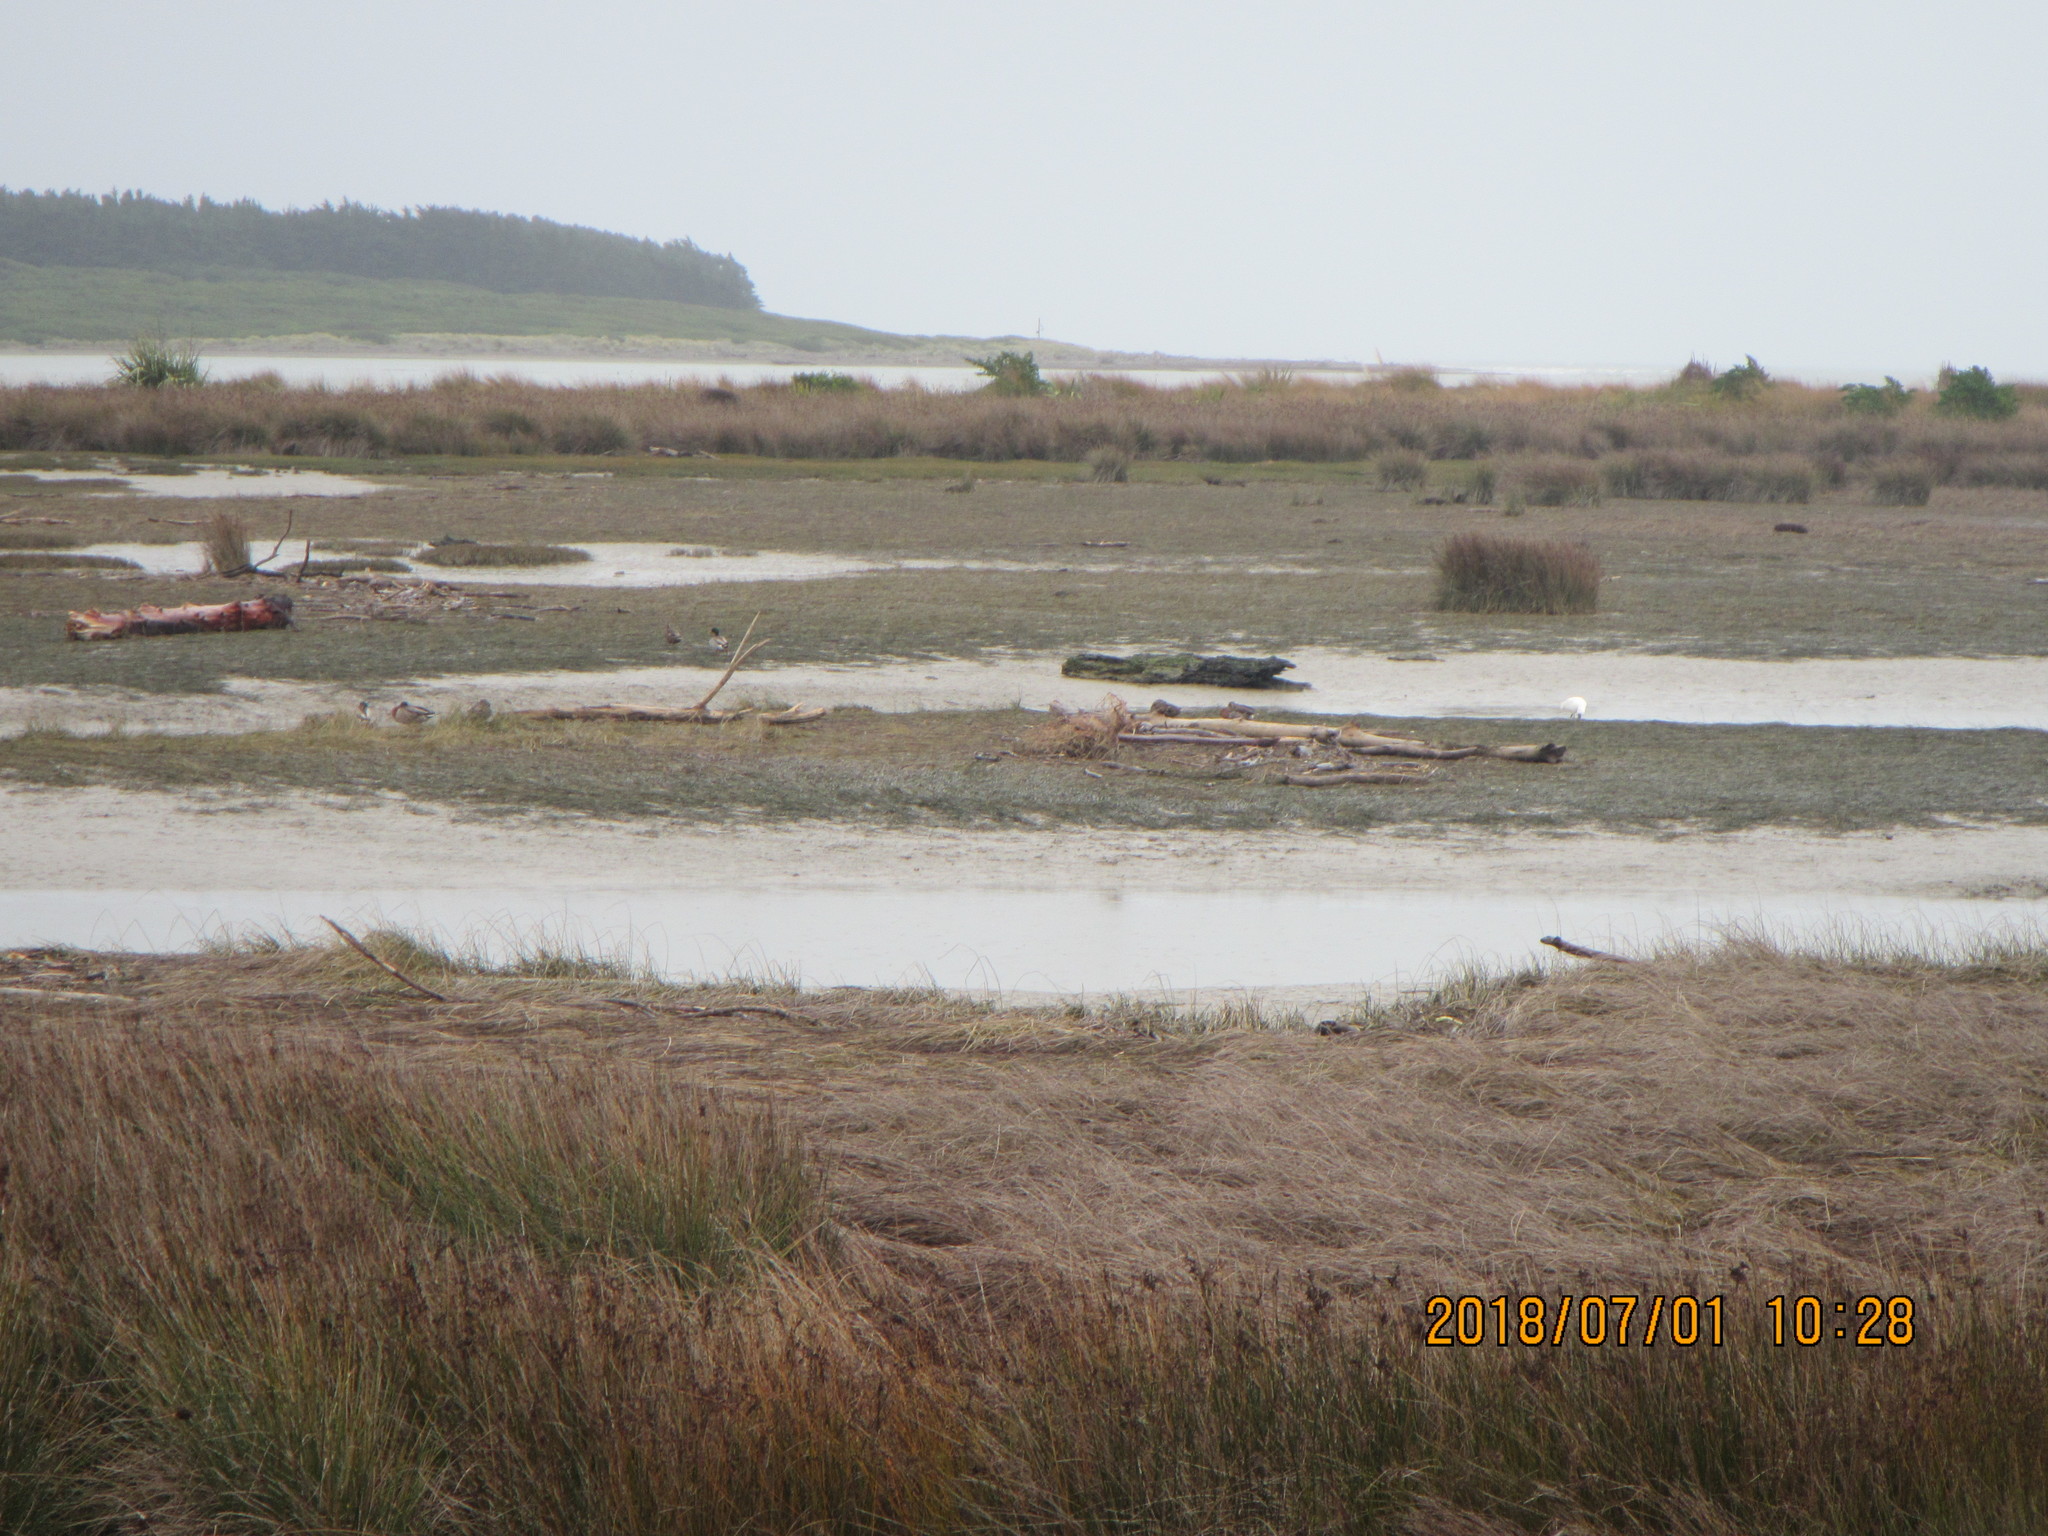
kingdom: Animalia
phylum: Chordata
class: Aves
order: Pelecaniformes
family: Threskiornithidae
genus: Platalea
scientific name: Platalea regia
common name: Royal spoonbill
